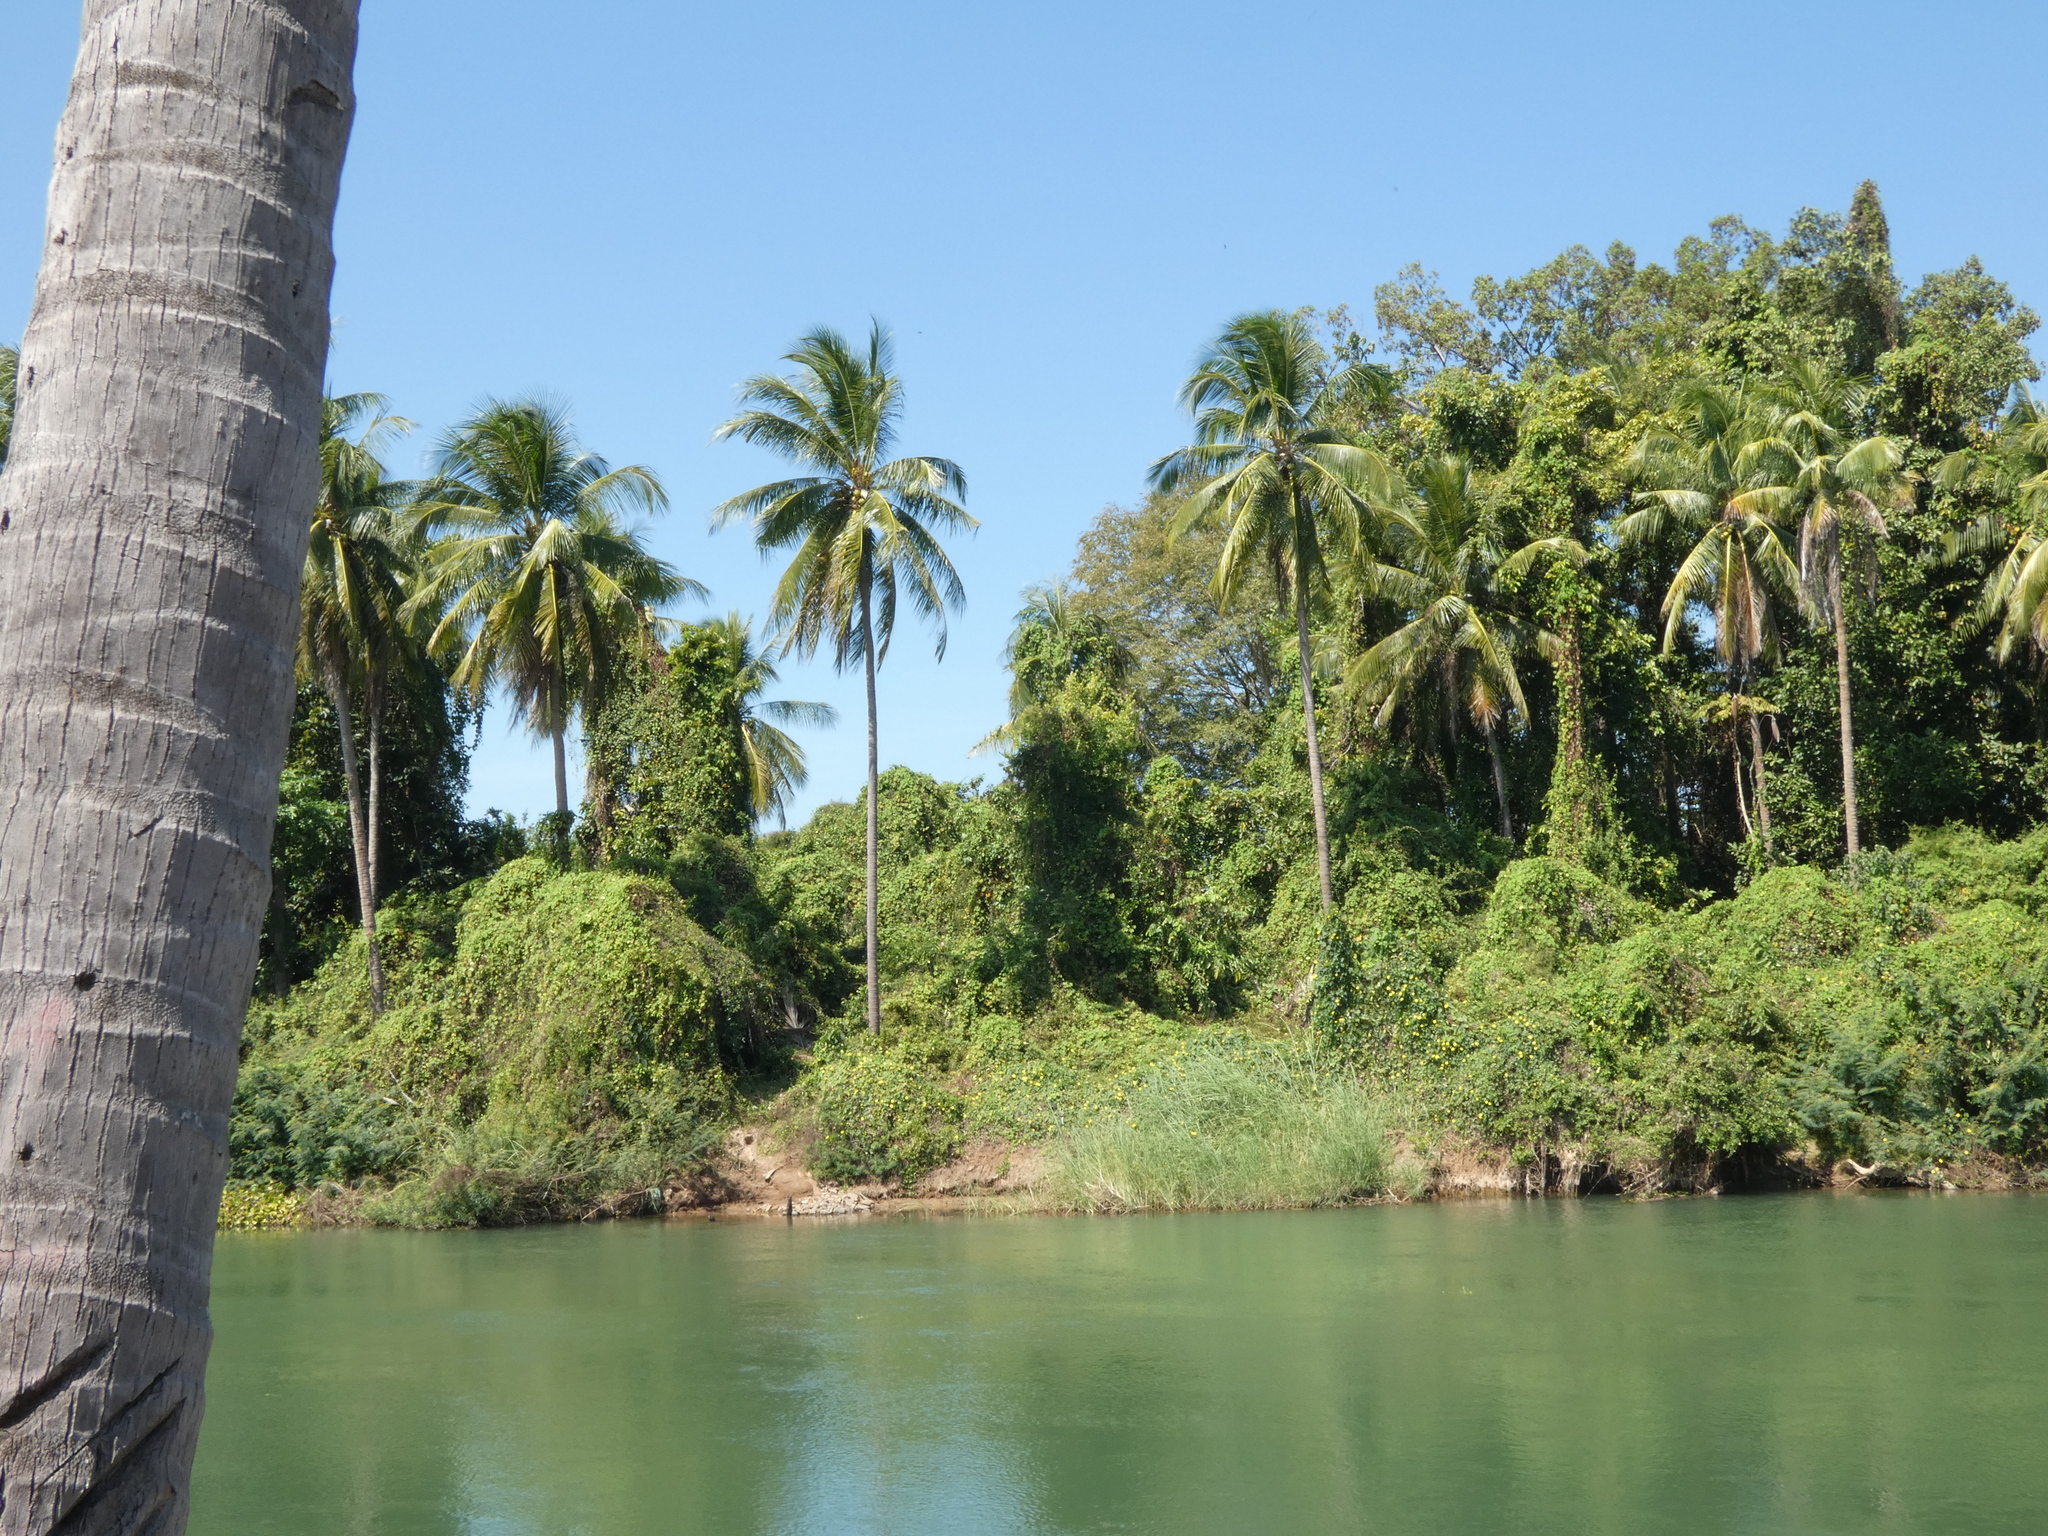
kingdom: Plantae
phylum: Tracheophyta
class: Liliopsida
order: Arecales
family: Arecaceae
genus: Cocos
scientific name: Cocos nucifera
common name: Coconut palm
